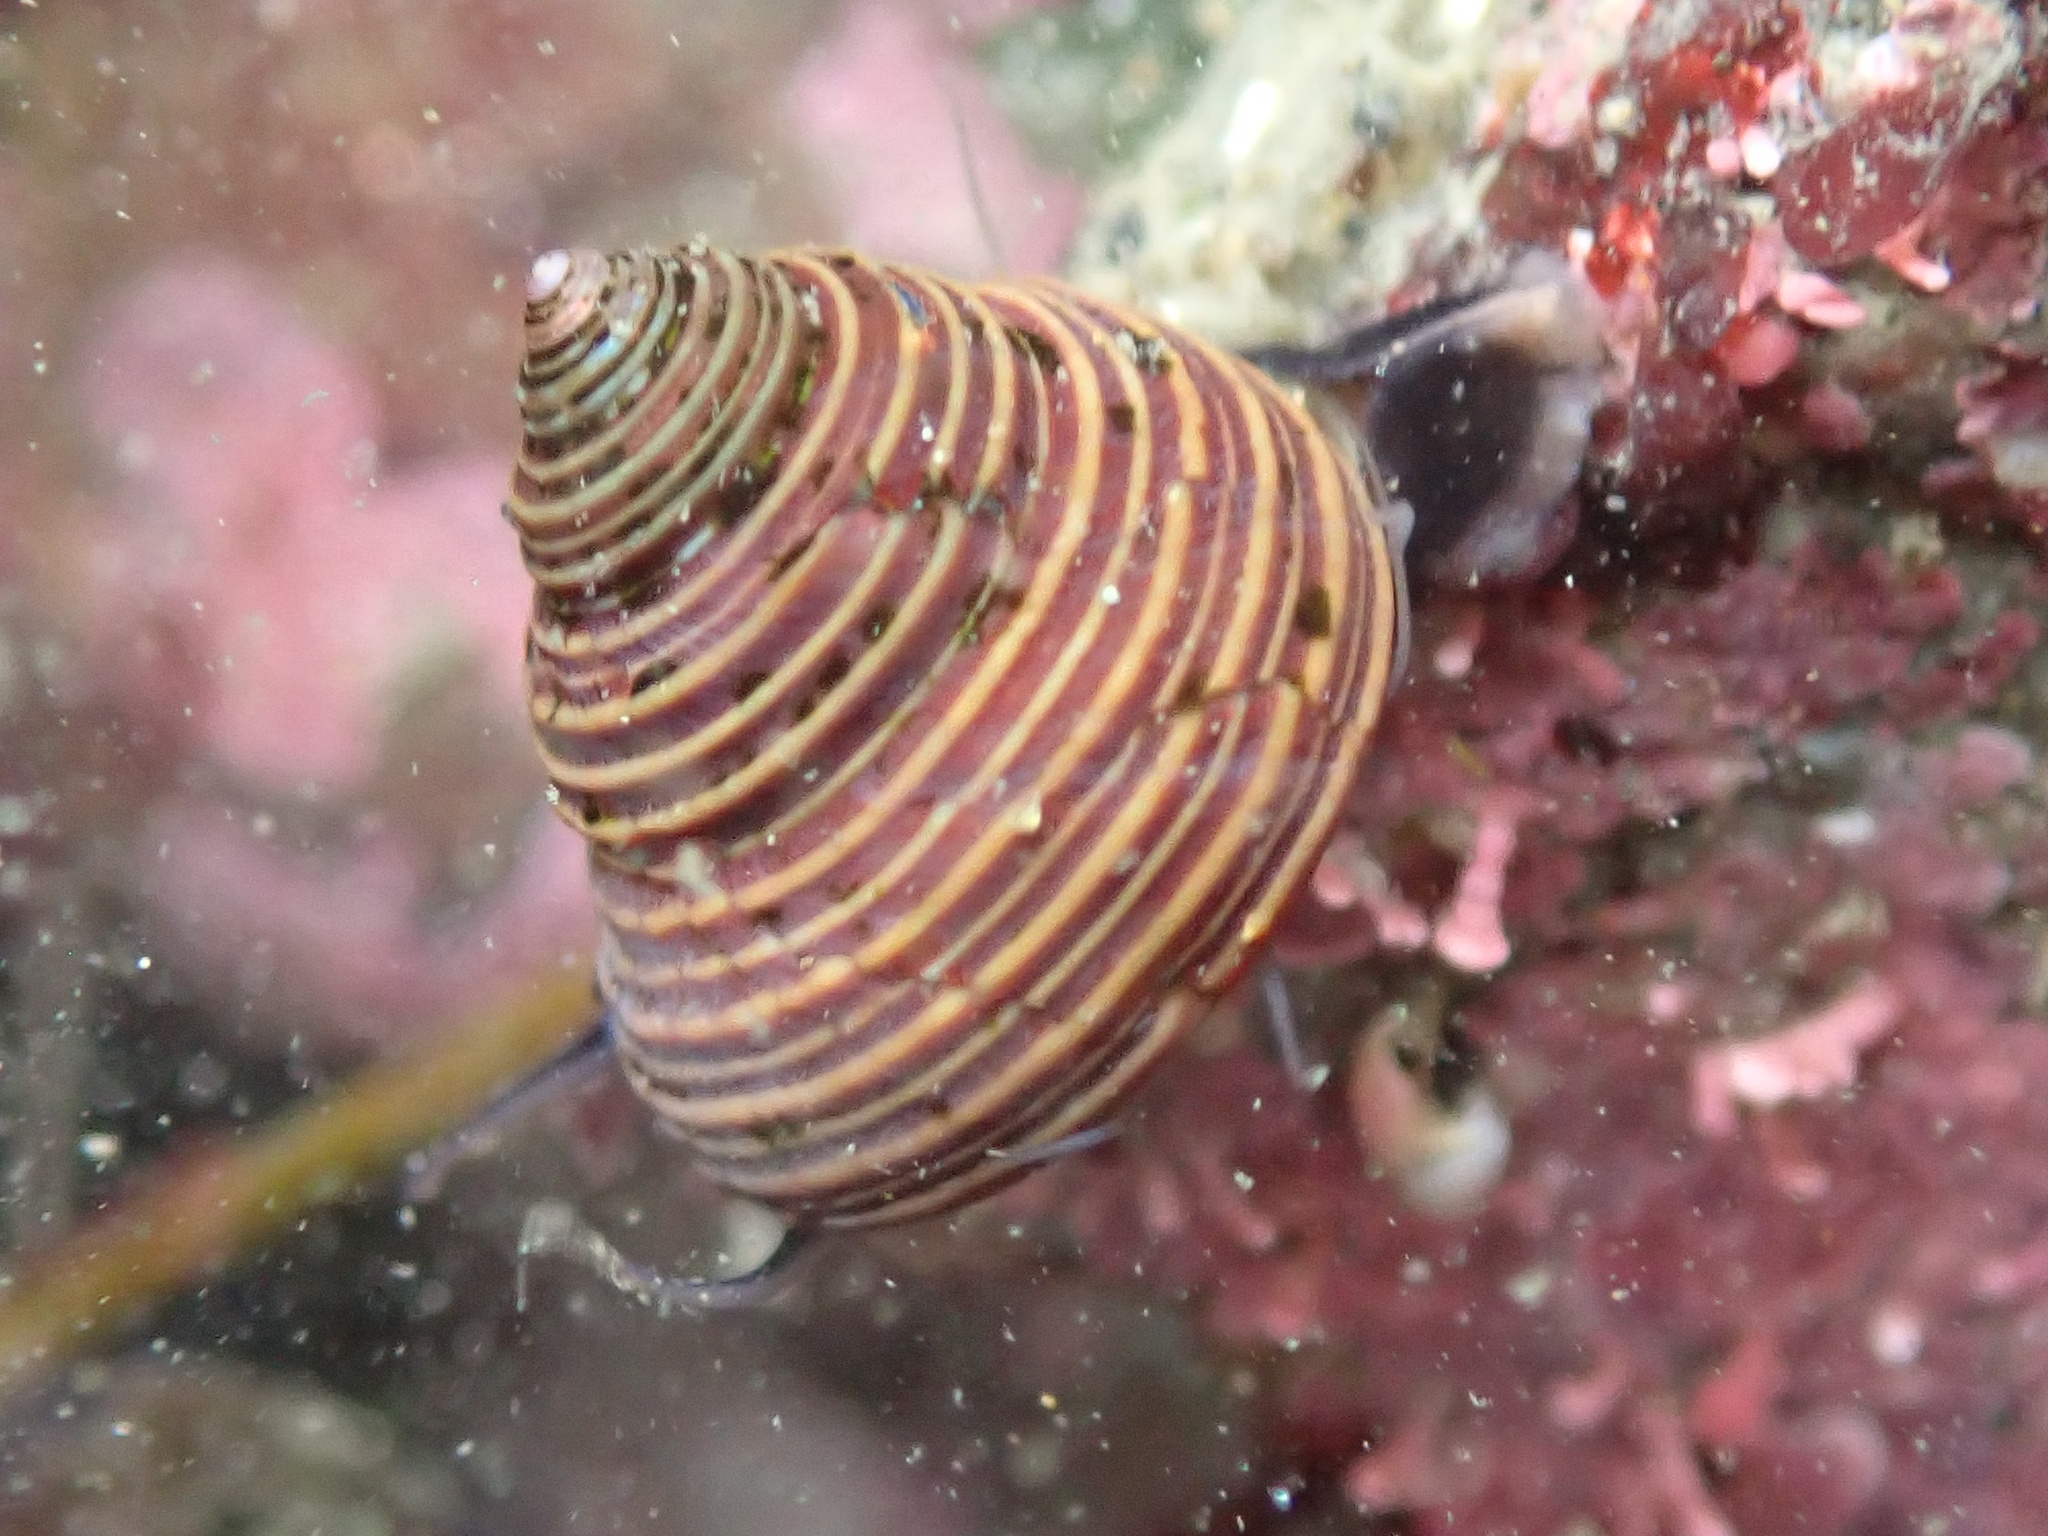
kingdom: Animalia
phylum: Mollusca
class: Gastropoda
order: Trochida
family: Calliostomatidae
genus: Calliostoma
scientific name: Calliostoma ligatum
